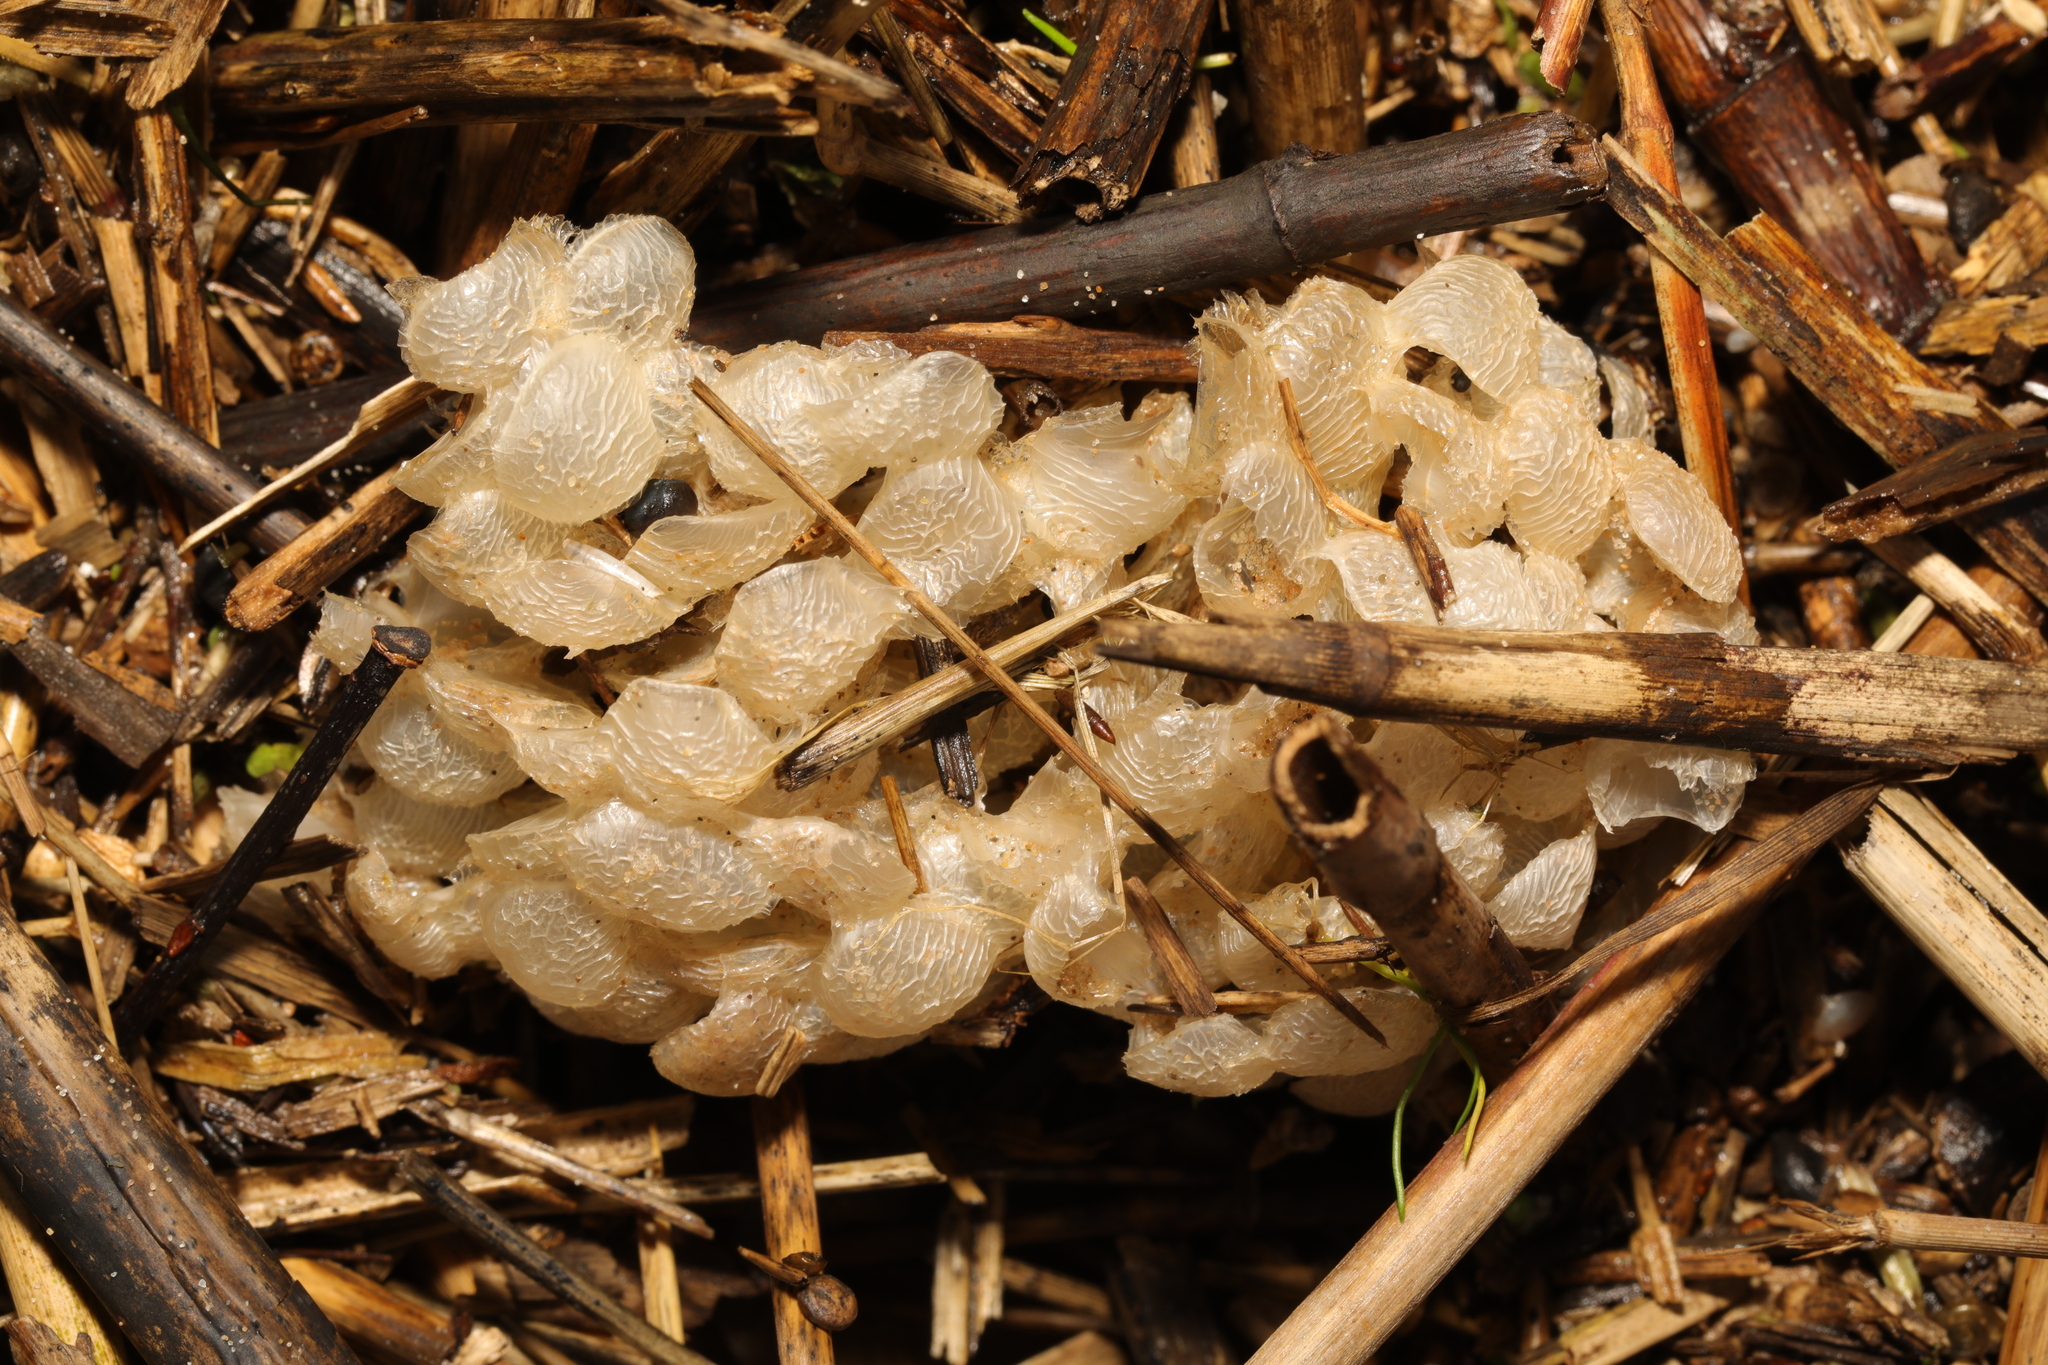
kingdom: Animalia
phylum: Mollusca
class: Gastropoda
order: Neogastropoda
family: Buccinidae
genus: Buccinum
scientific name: Buccinum undatum
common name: Common whelk
